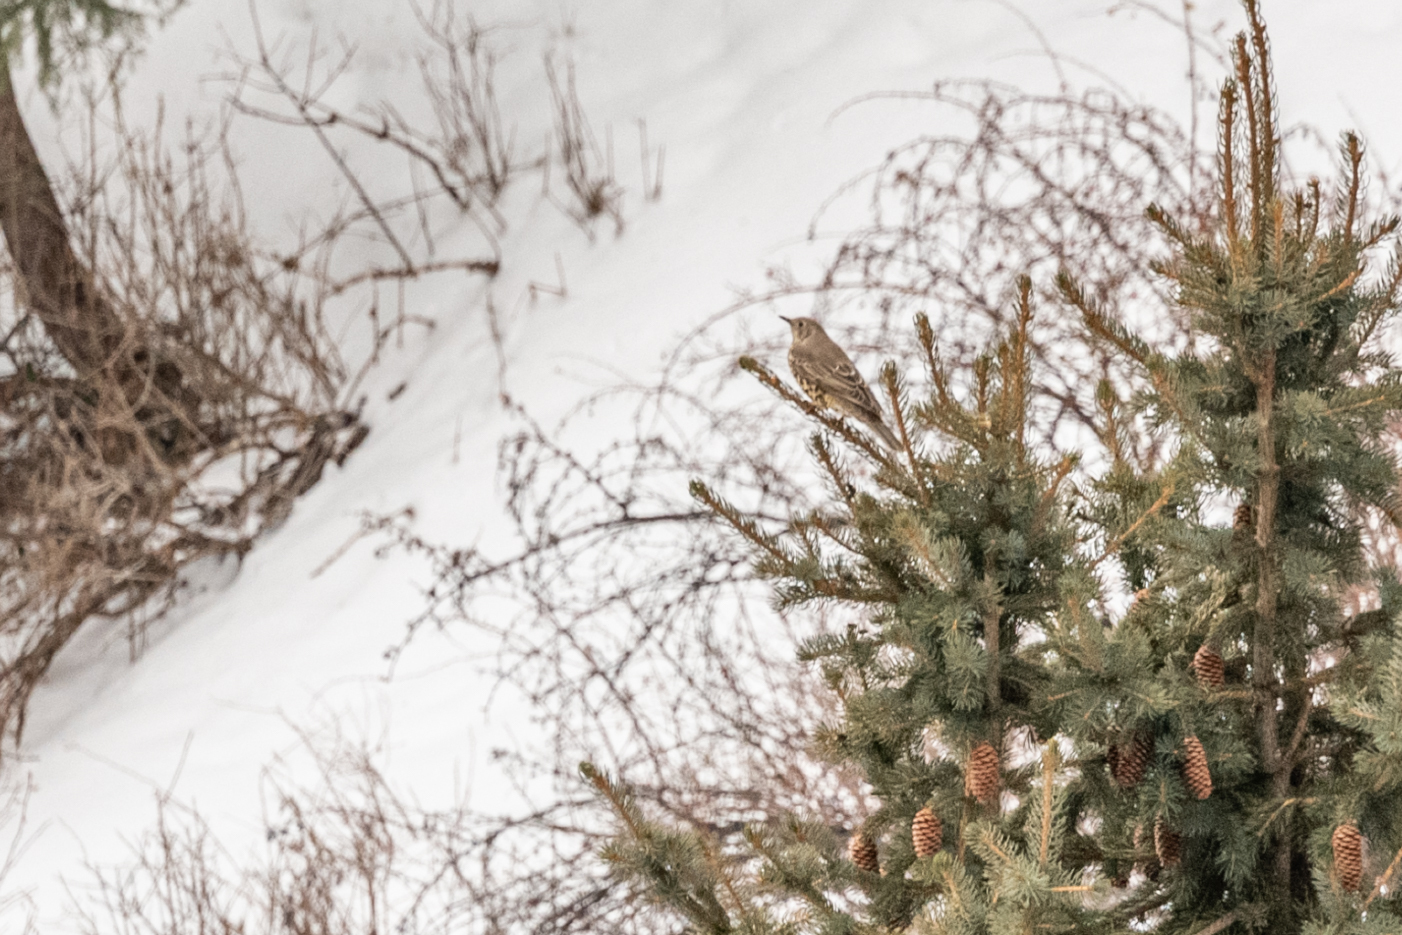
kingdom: Animalia
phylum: Chordata
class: Aves
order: Passeriformes
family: Turdidae
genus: Turdus
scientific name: Turdus viscivorus
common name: Mistle thrush
